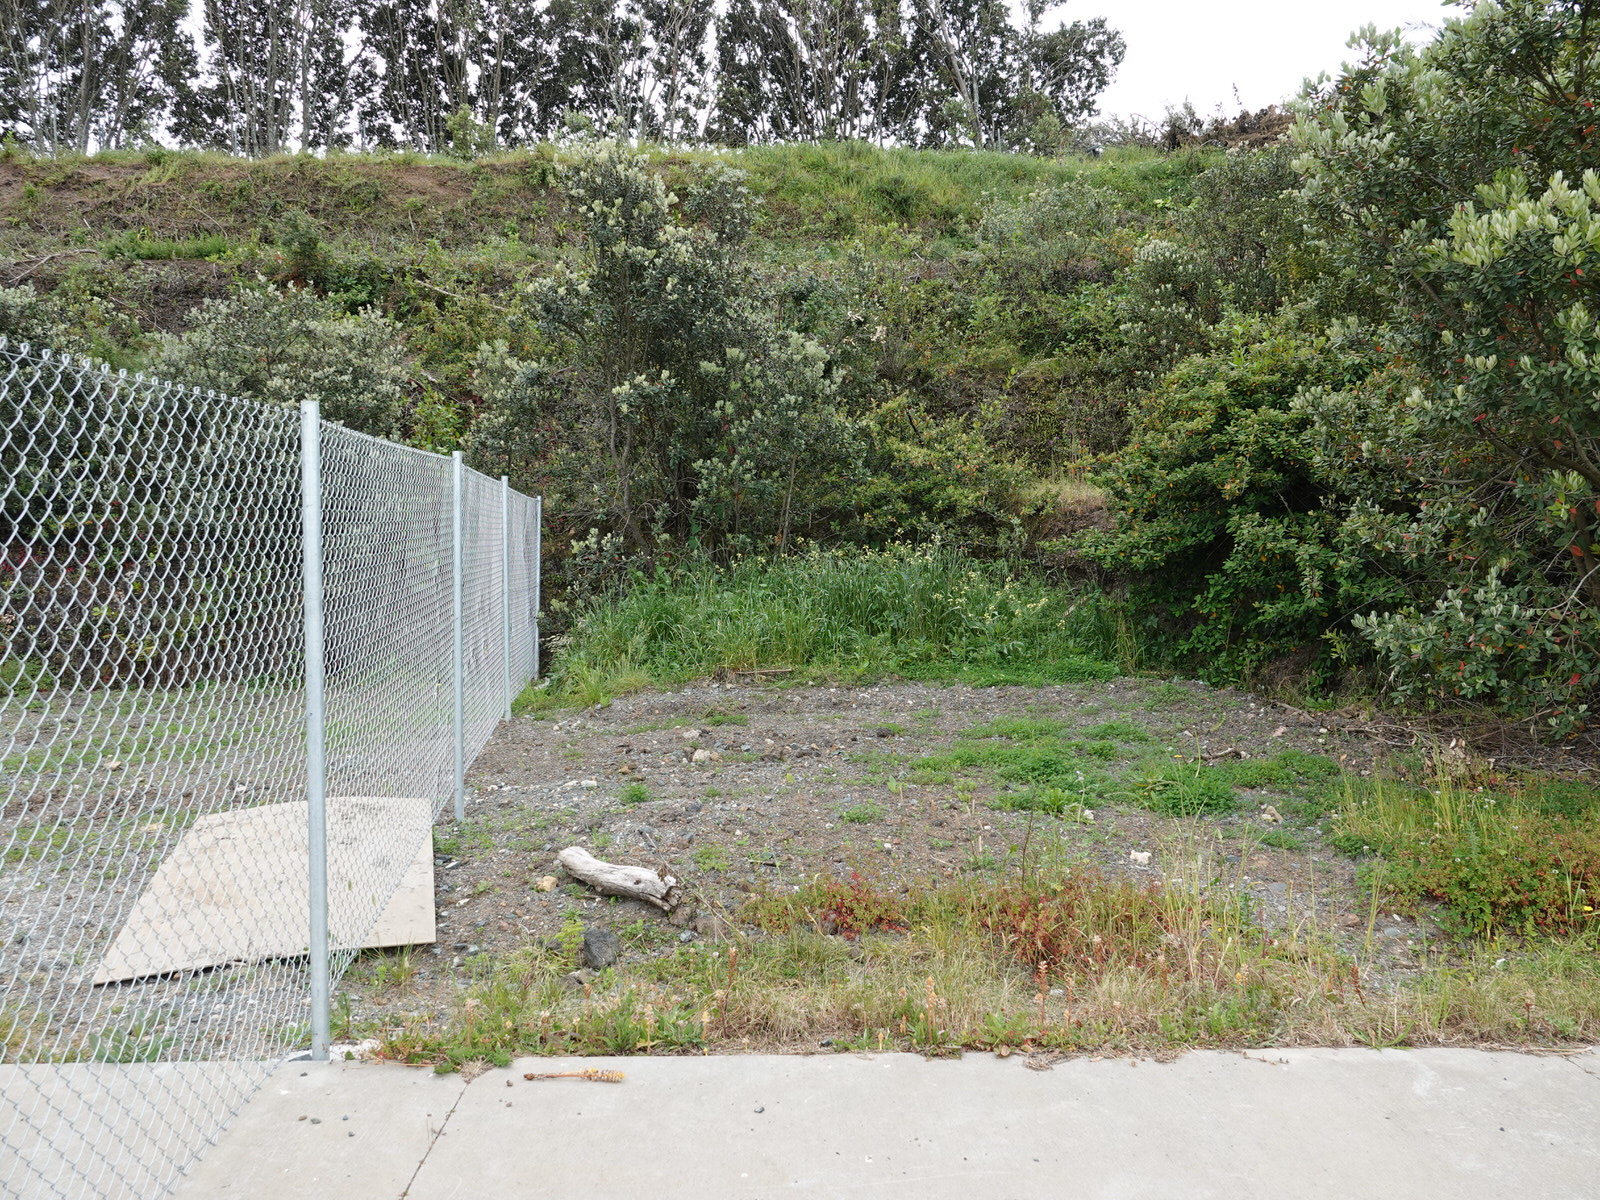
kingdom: Plantae
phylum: Tracheophyta
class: Magnoliopsida
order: Lamiales
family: Orobanchaceae
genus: Orobanche
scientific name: Orobanche minor
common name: Common broomrape
